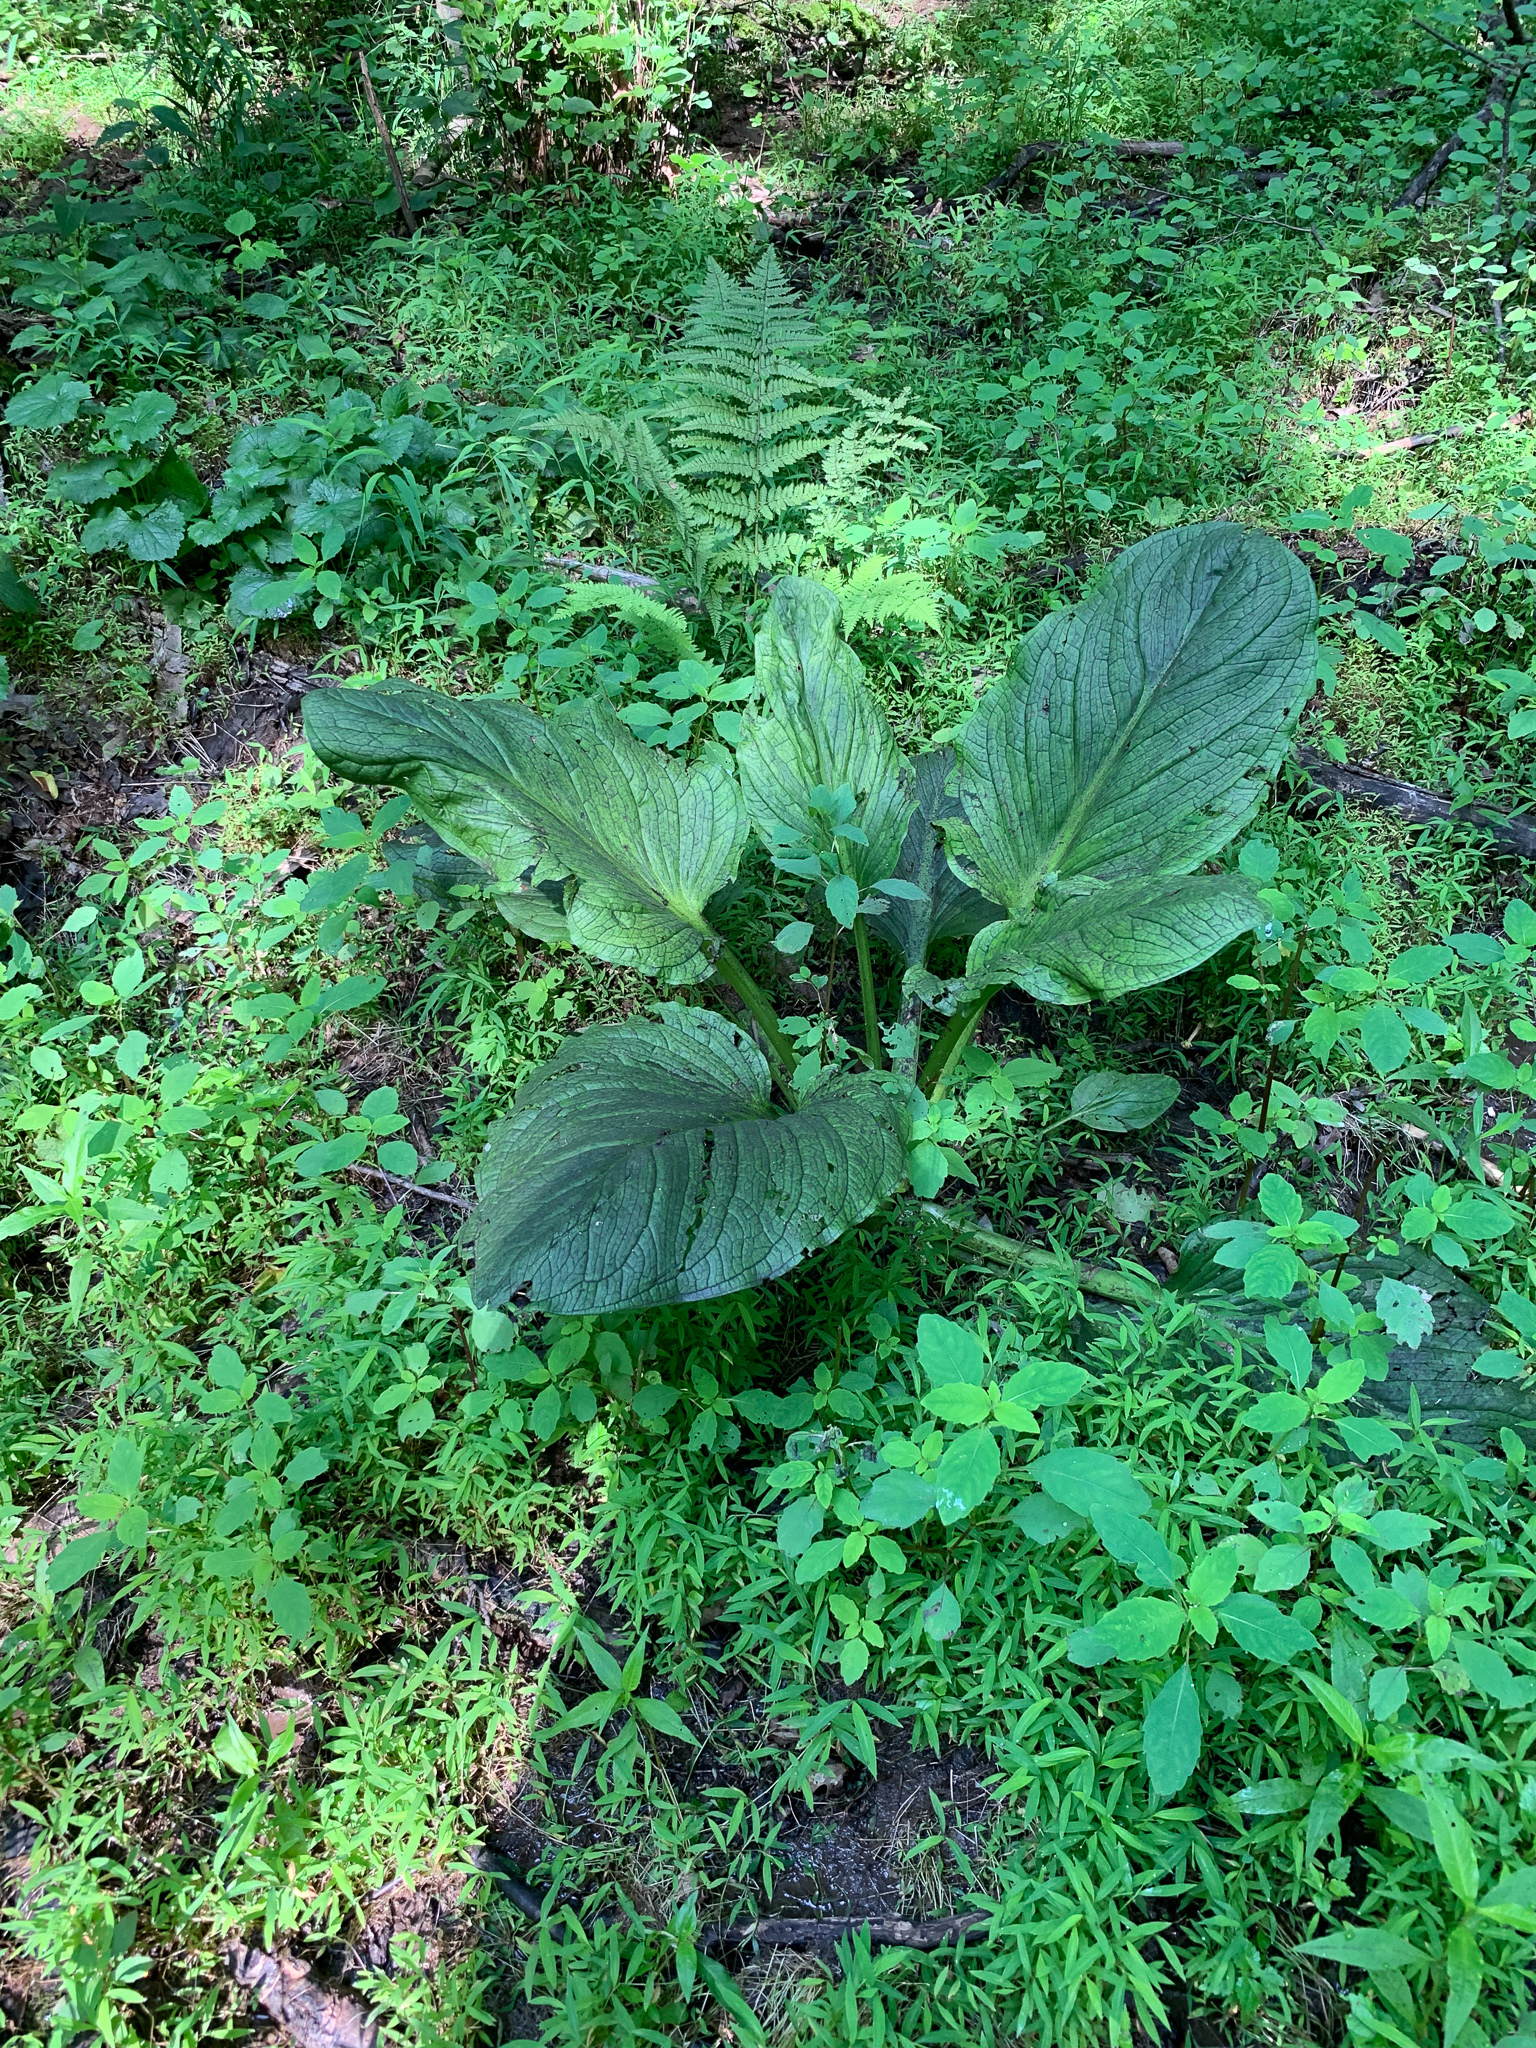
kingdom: Plantae
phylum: Tracheophyta
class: Liliopsida
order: Alismatales
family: Araceae
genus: Symplocarpus
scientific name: Symplocarpus foetidus
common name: Eastern skunk cabbage
